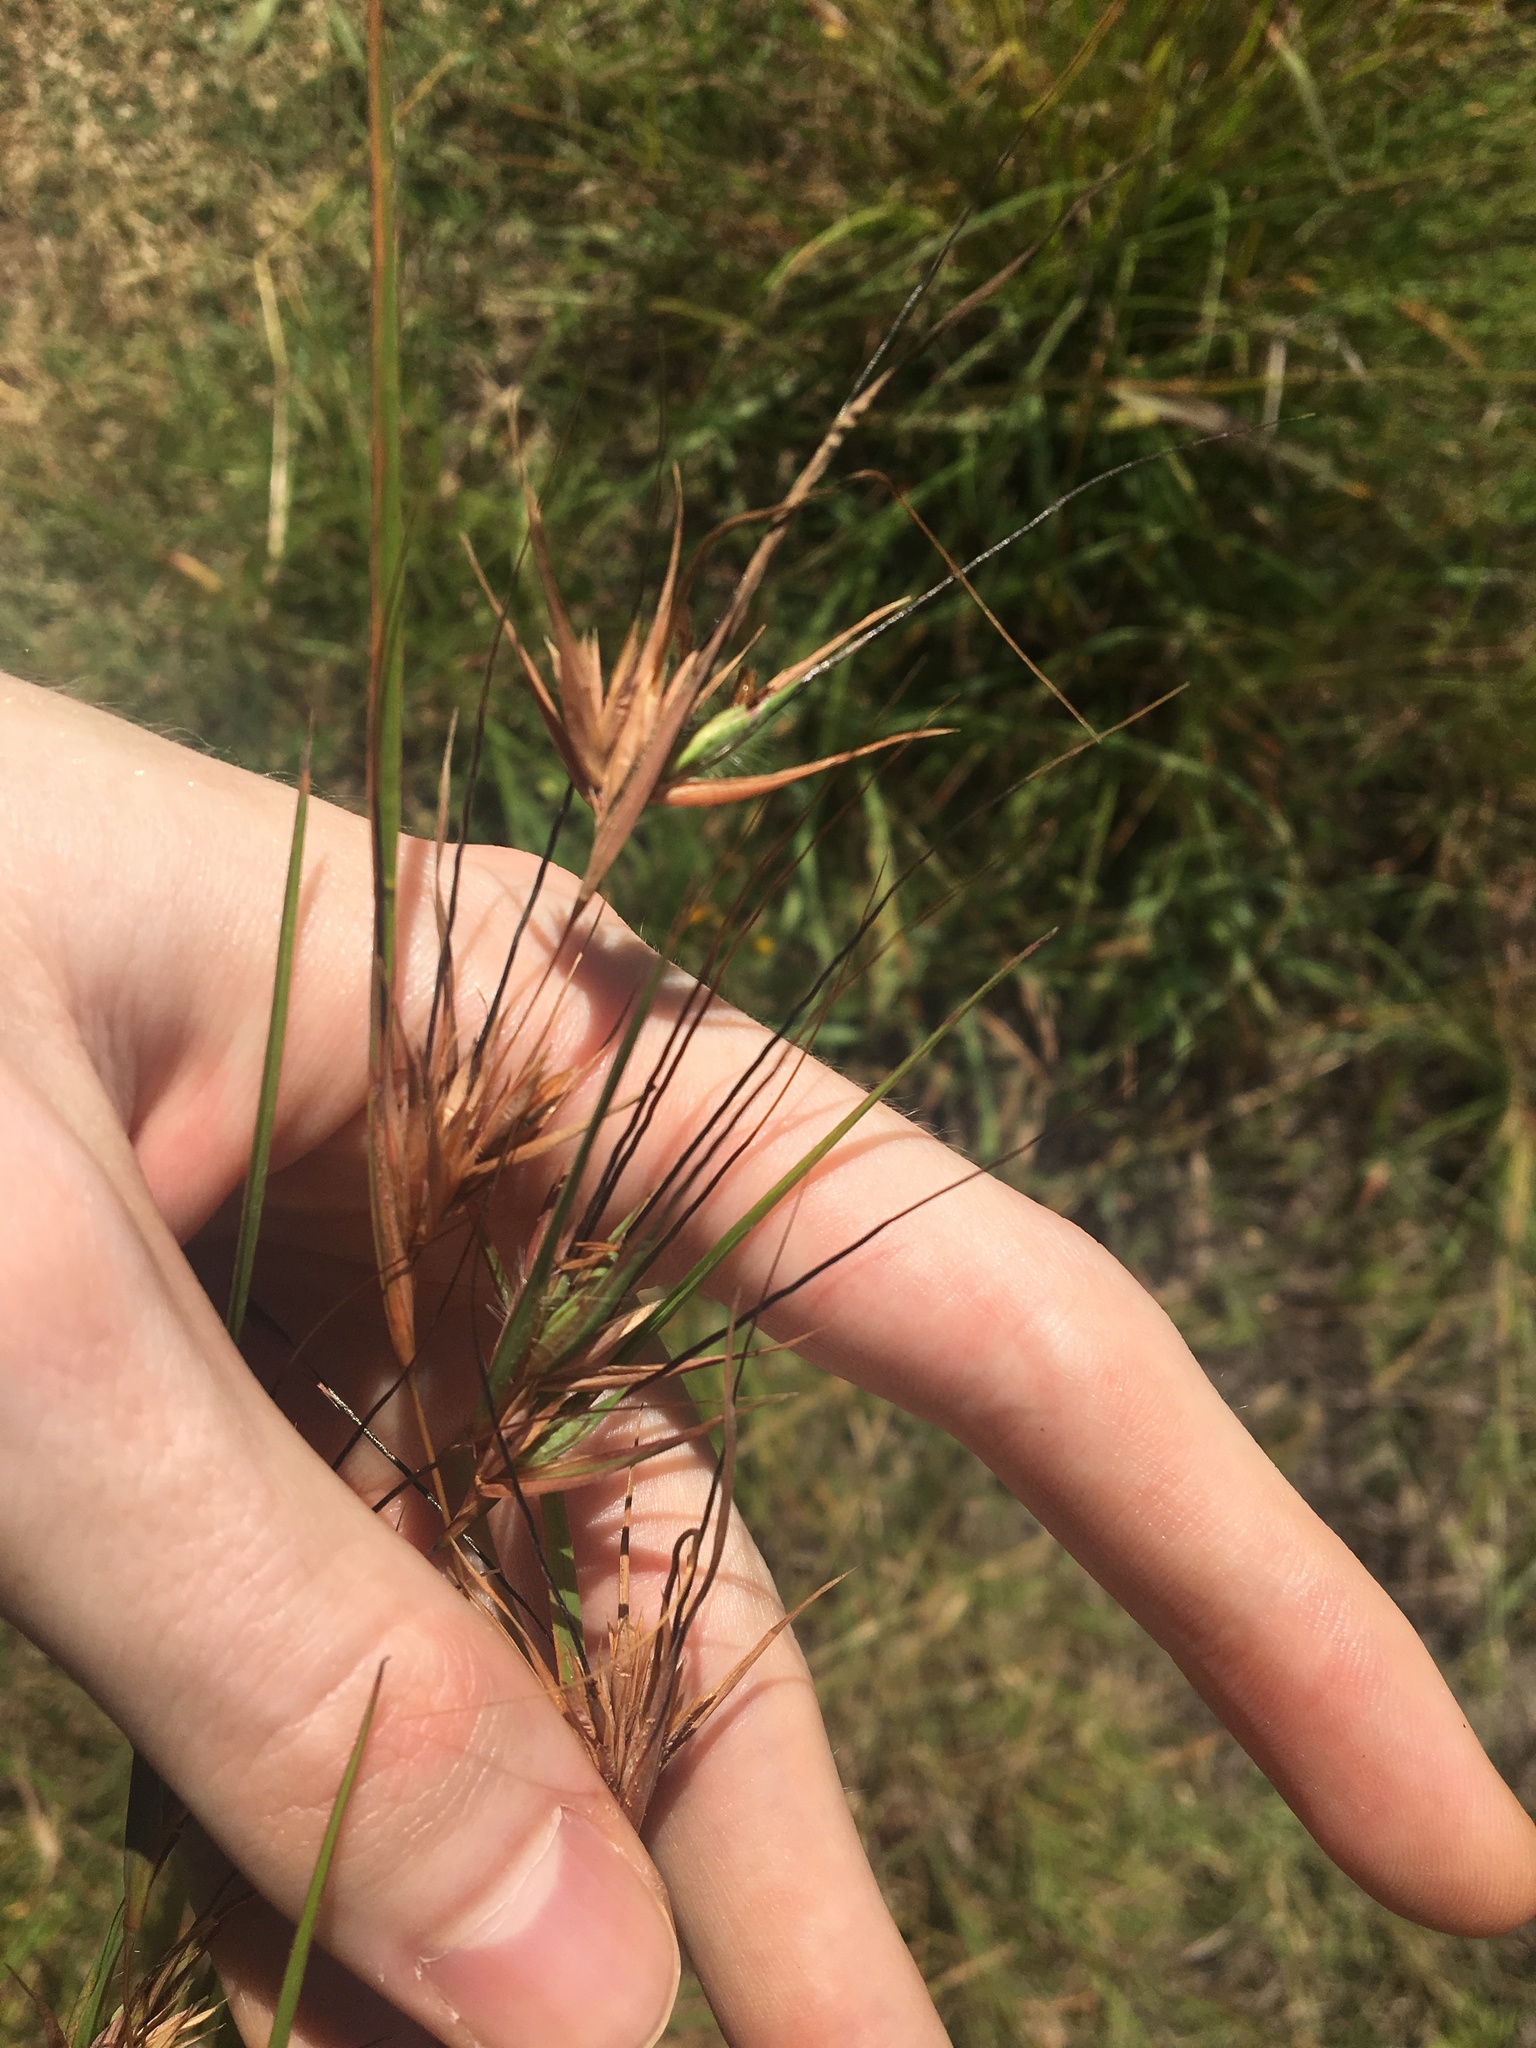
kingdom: Plantae
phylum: Tracheophyta
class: Liliopsida
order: Poales
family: Poaceae
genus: Themeda
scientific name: Themeda triandra
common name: Kangaroo grass
